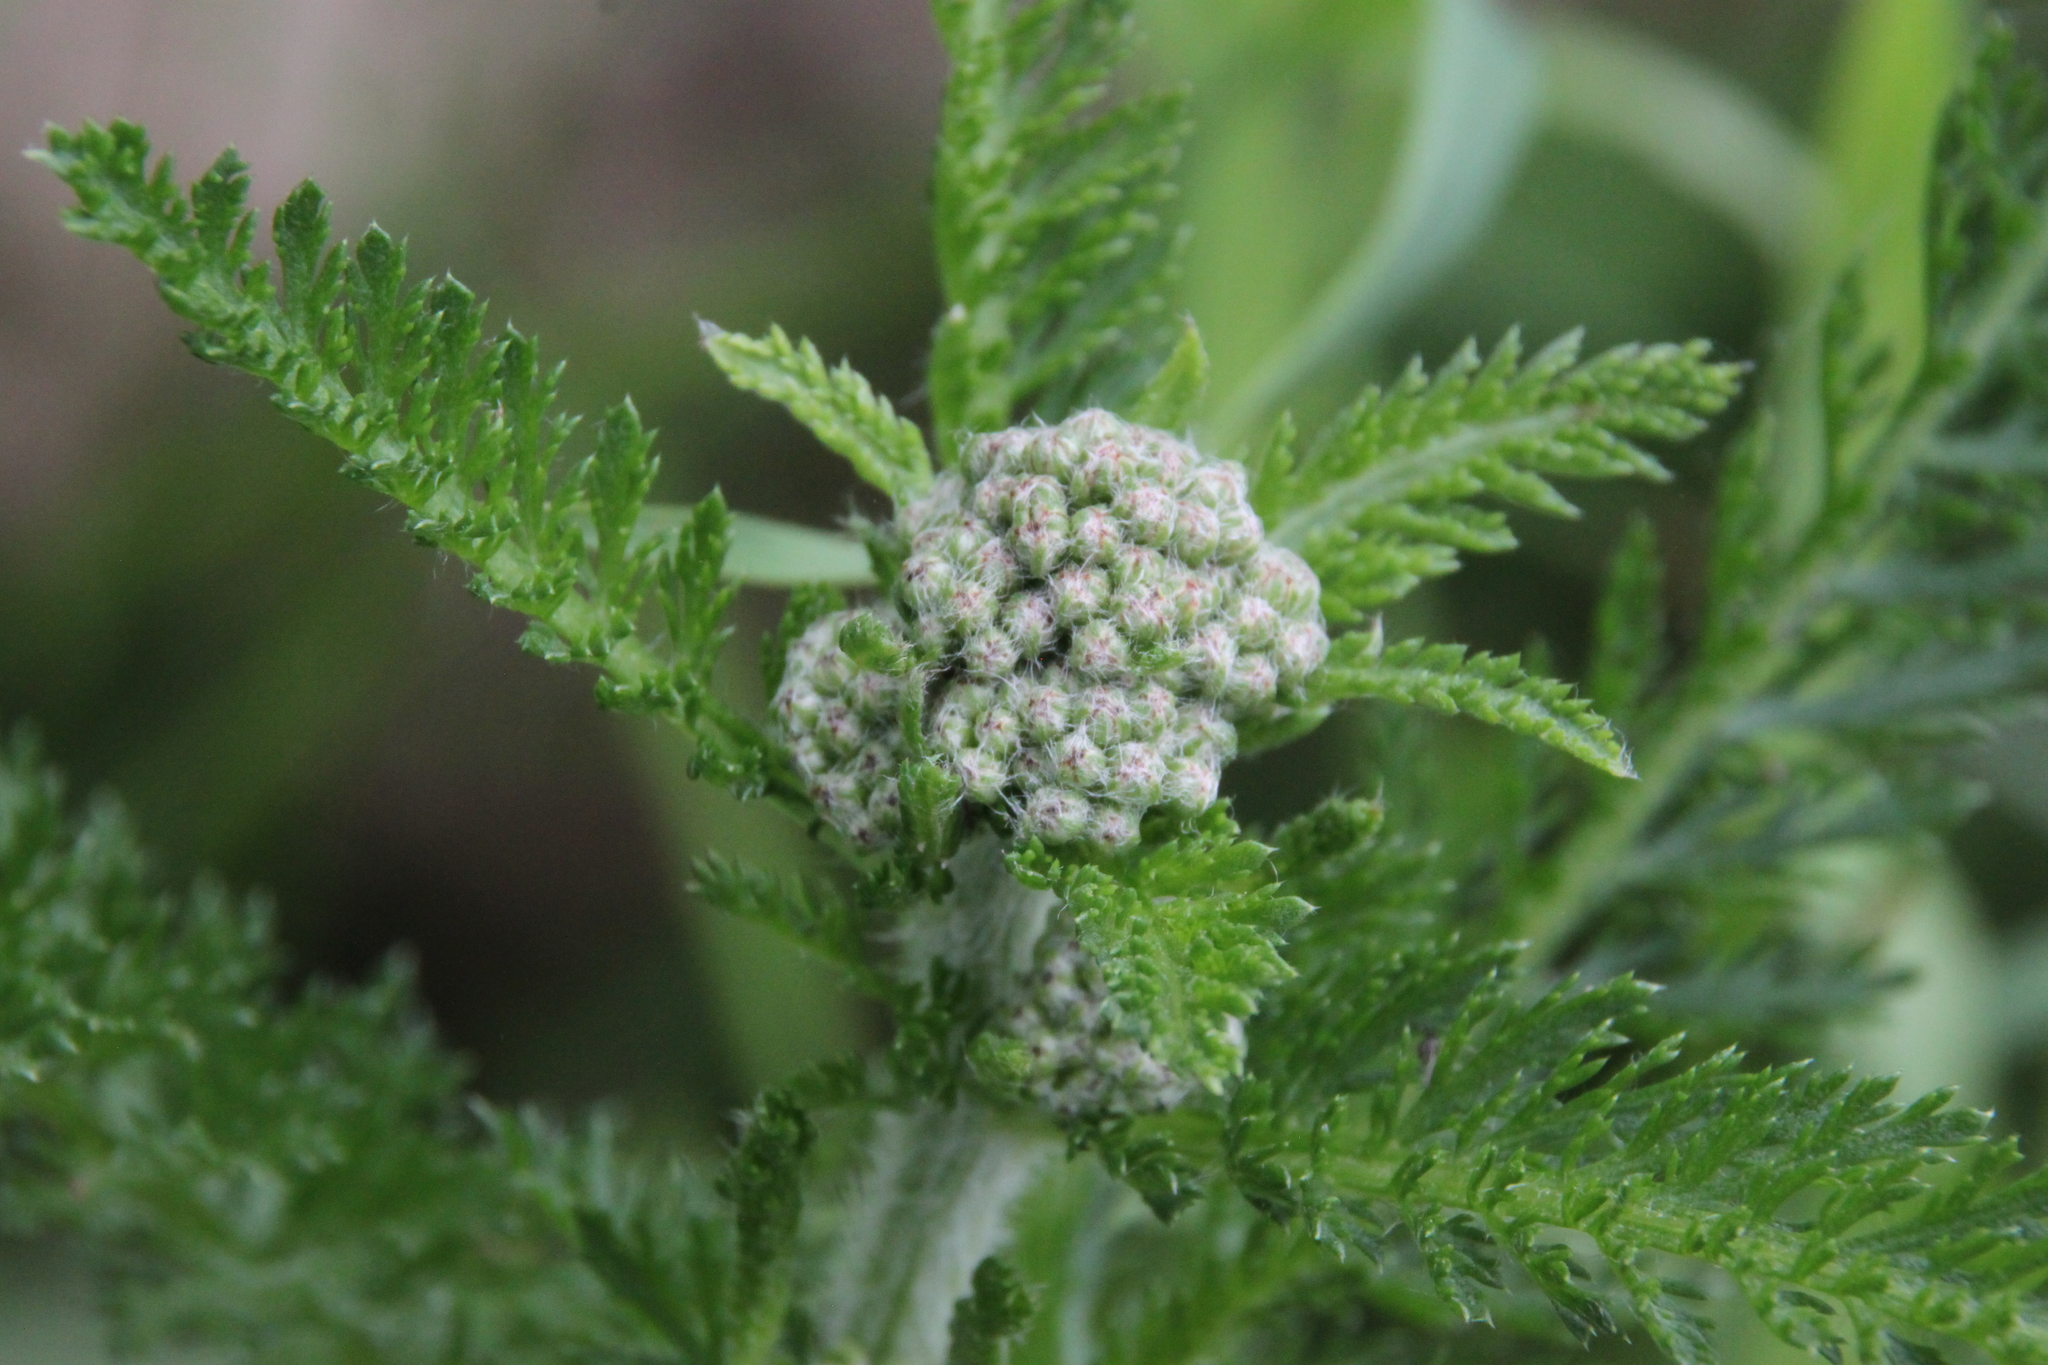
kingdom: Plantae
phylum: Tracheophyta
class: Magnoliopsida
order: Asterales
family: Asteraceae
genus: Achillea
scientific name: Achillea millefolium
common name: Yarrow
